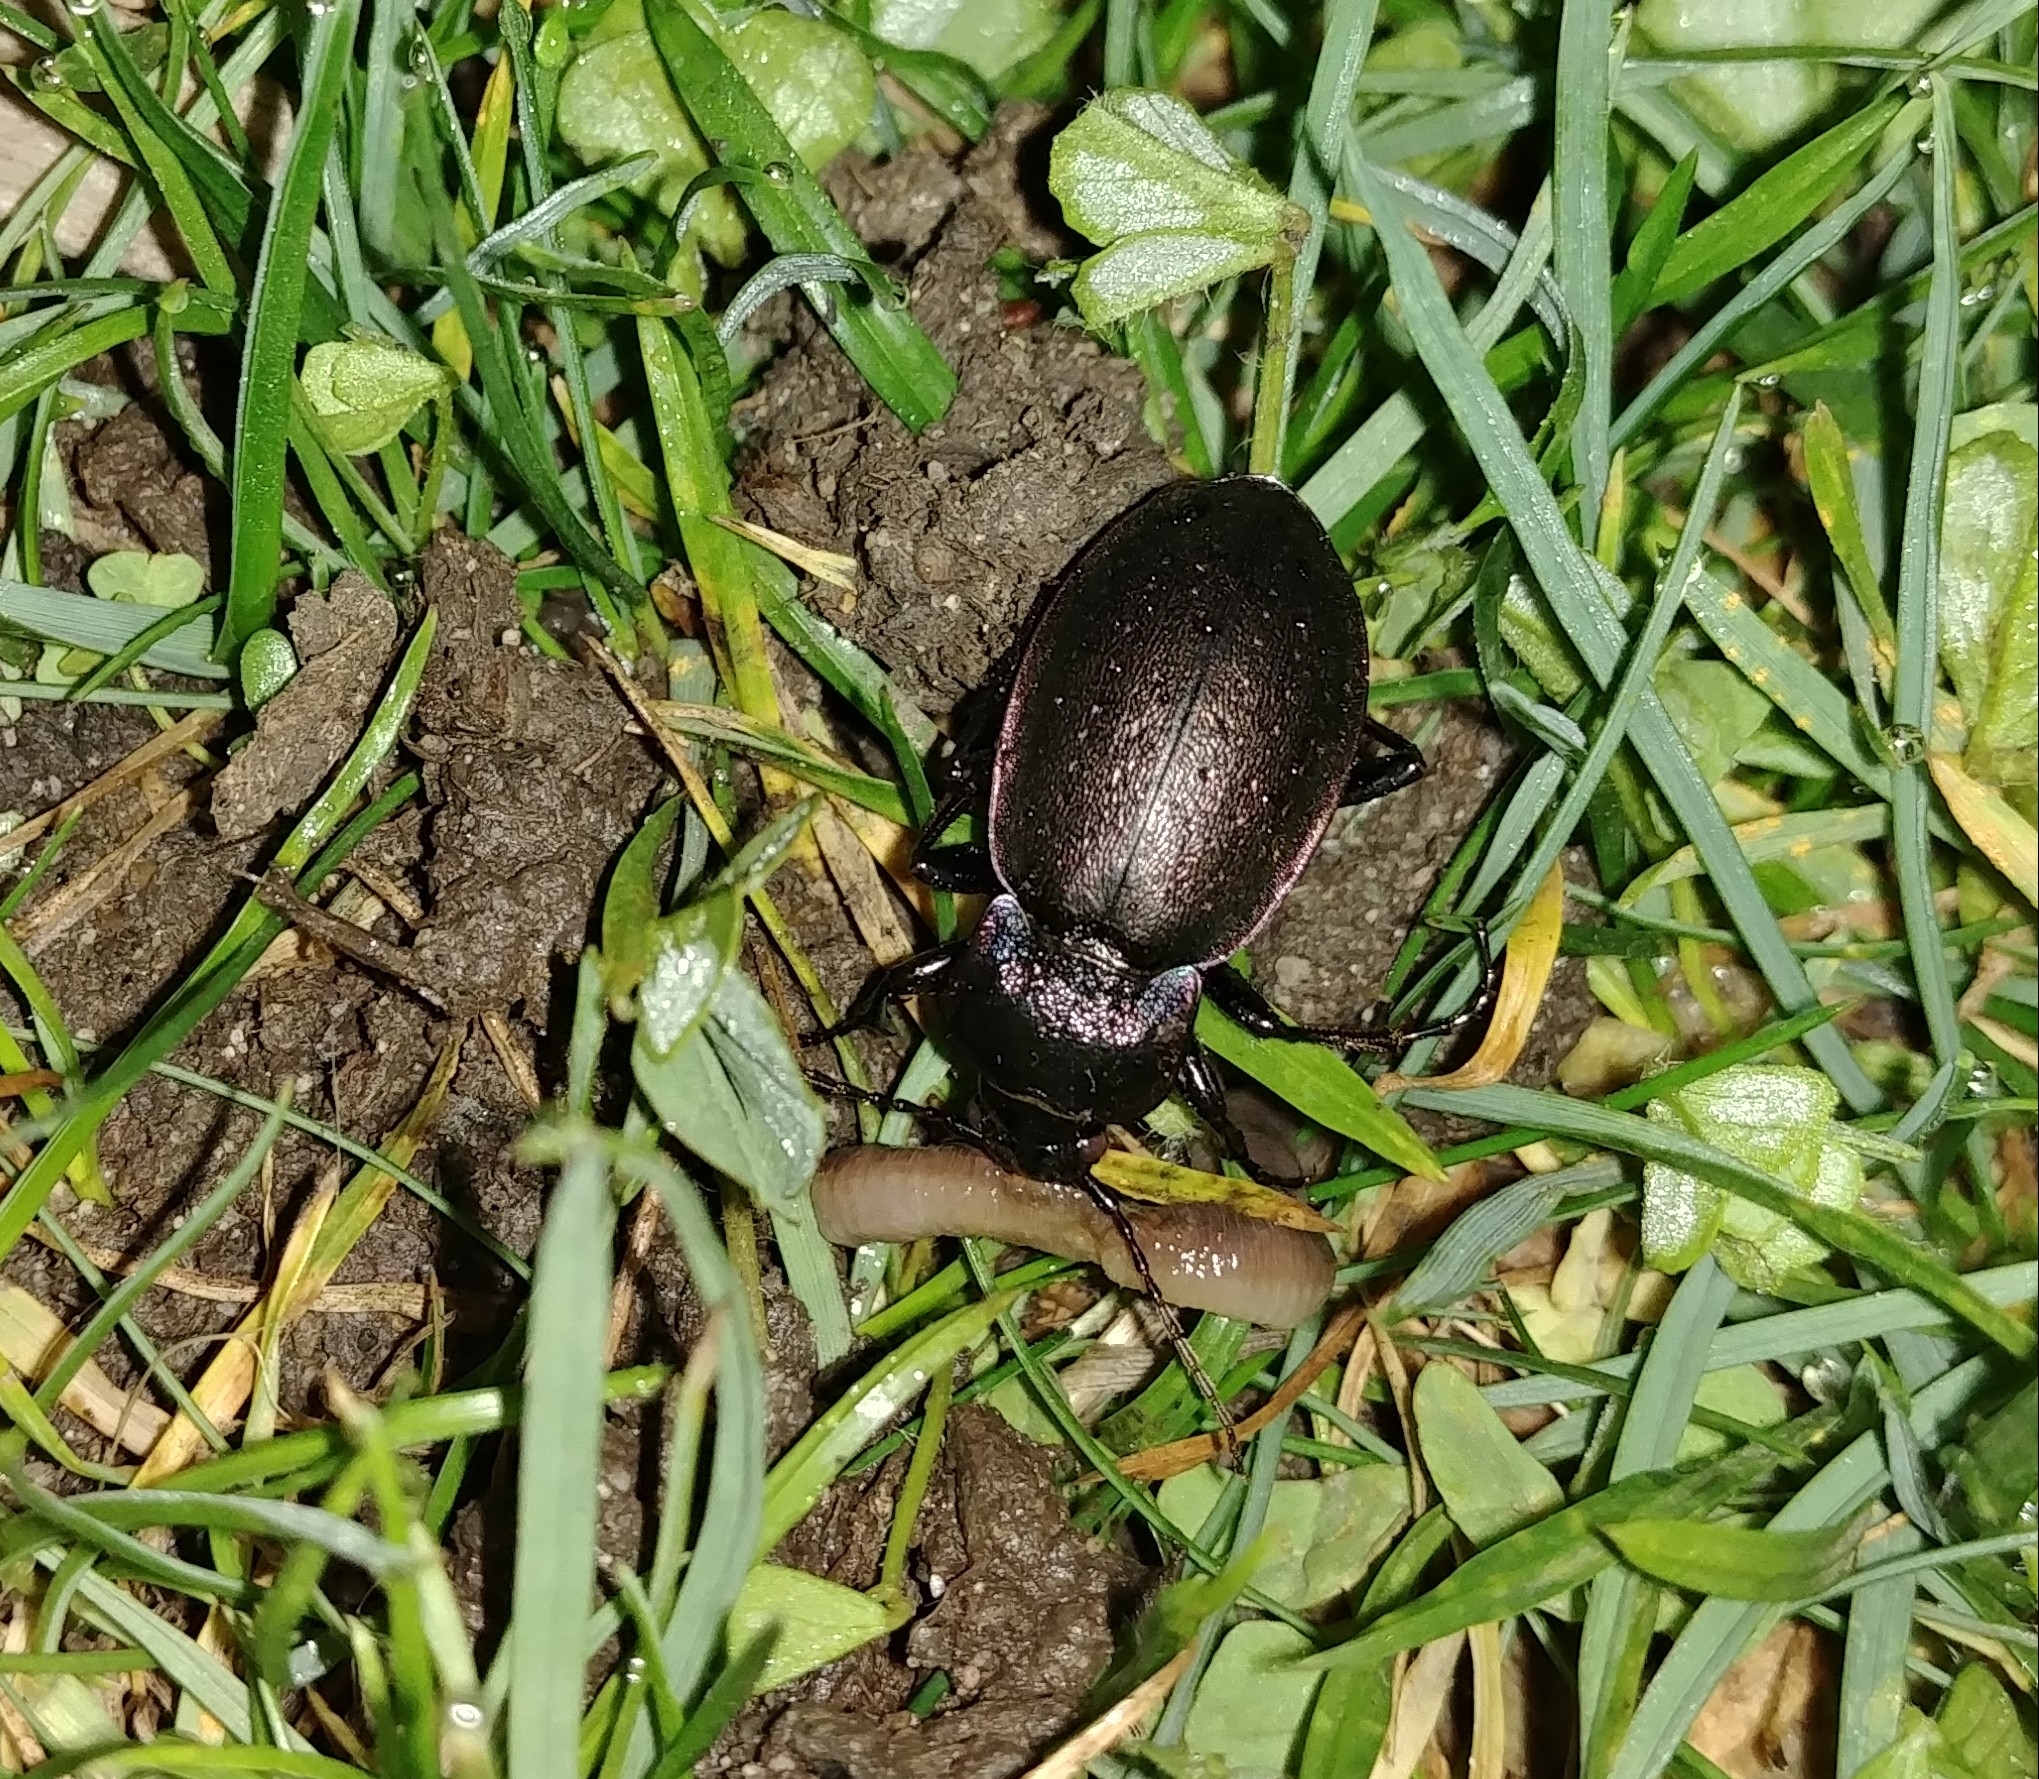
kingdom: Animalia
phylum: Arthropoda
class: Insecta
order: Coleoptera
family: Carabidae
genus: Carabus
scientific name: Carabus nemoralis
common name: European ground beetle
